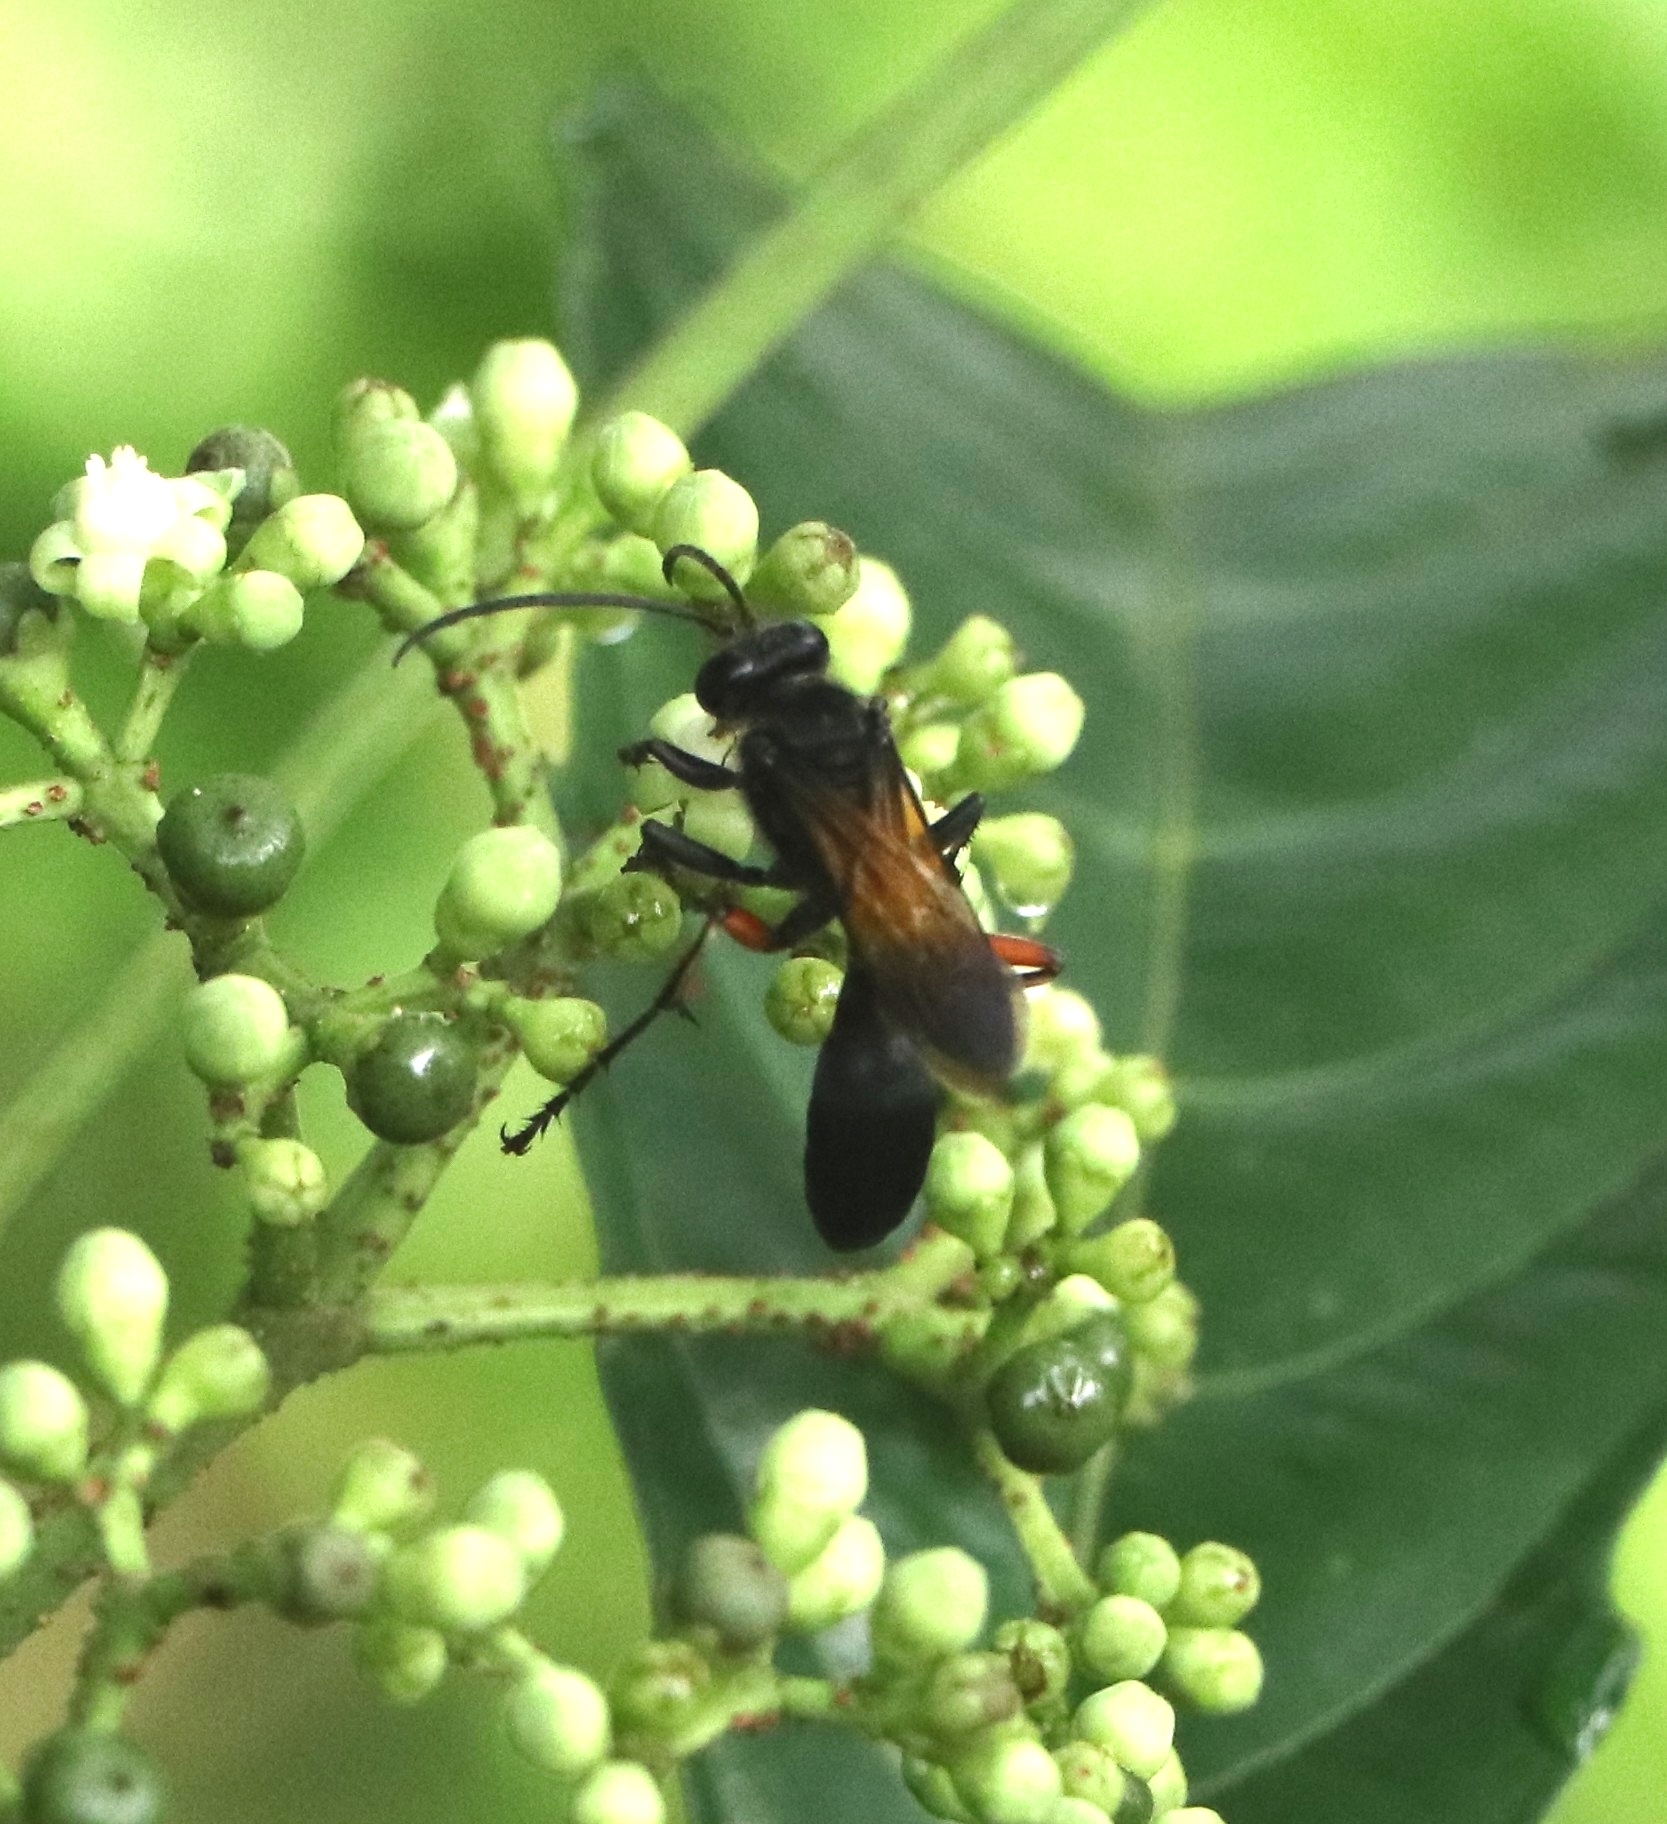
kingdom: Animalia
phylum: Arthropoda
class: Insecta
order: Hymenoptera
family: Sphecidae
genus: Sphex
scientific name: Sphex subtruncatus
